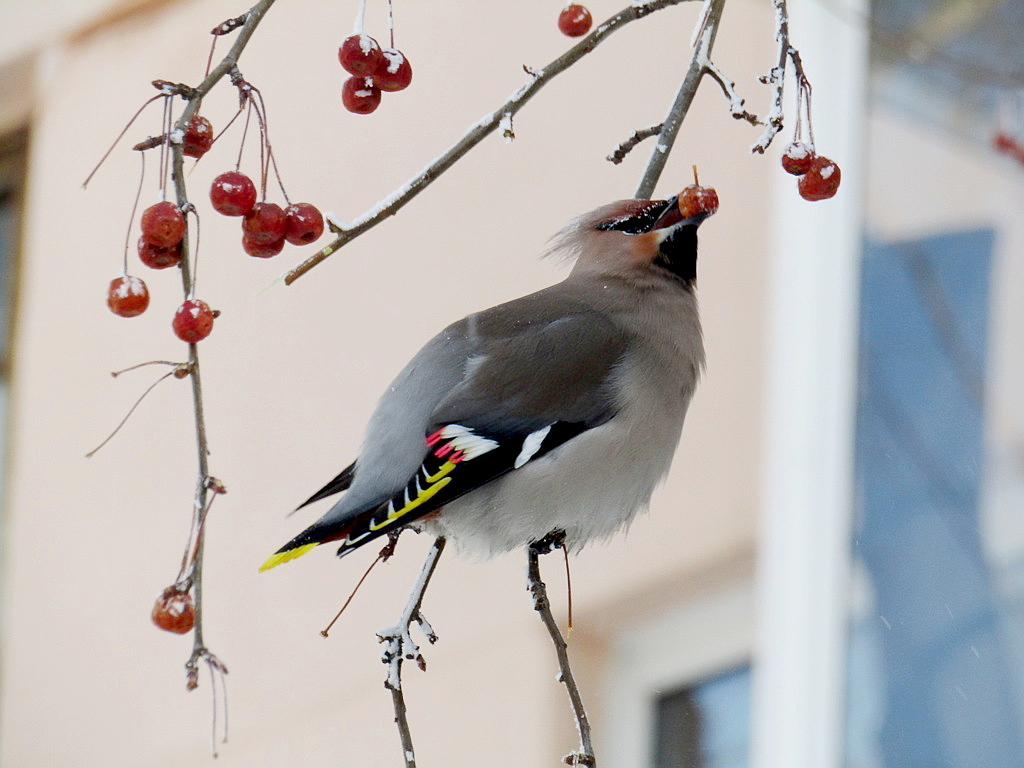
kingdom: Animalia
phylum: Chordata
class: Aves
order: Passeriformes
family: Bombycillidae
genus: Bombycilla
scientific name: Bombycilla garrulus
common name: Bohemian waxwing
